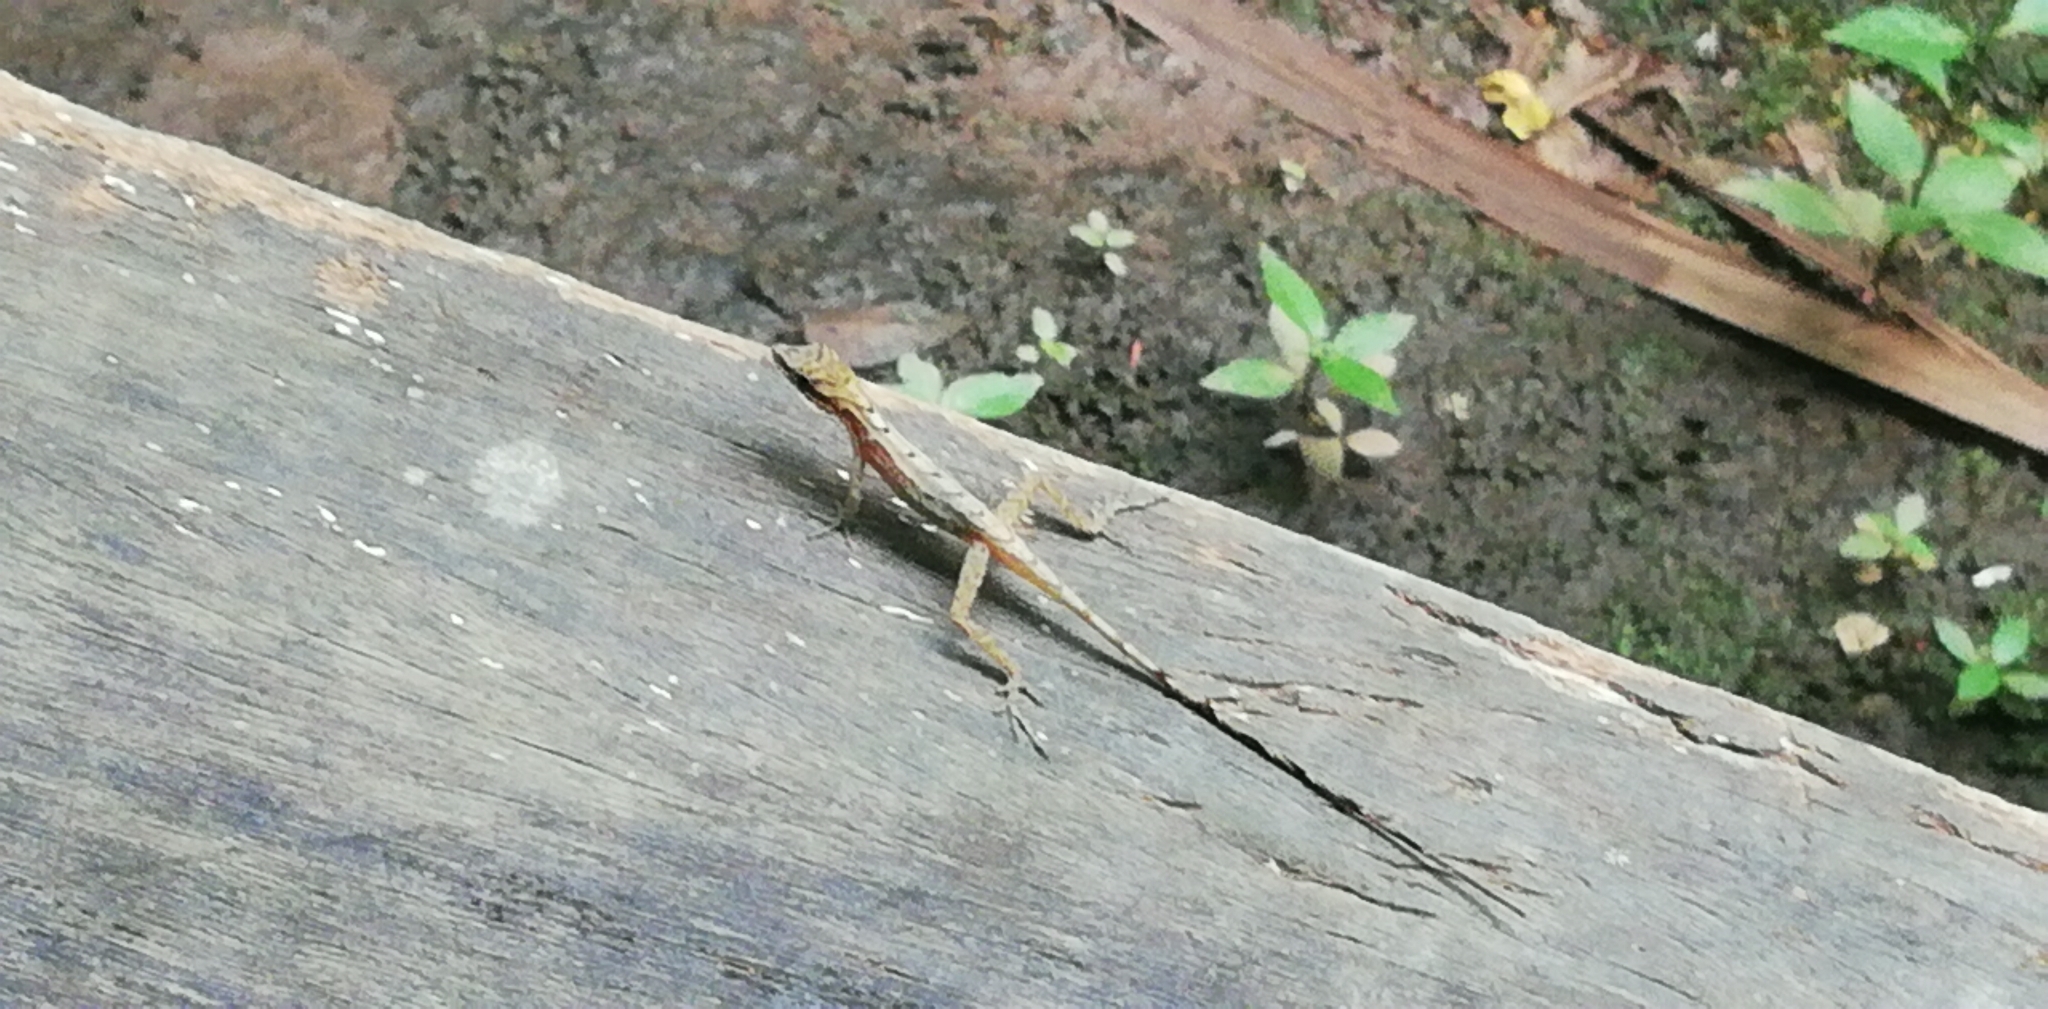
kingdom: Animalia
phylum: Chordata
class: Squamata
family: Dactyloidae
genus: Anolis
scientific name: Anolis limifrons
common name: Border anole
